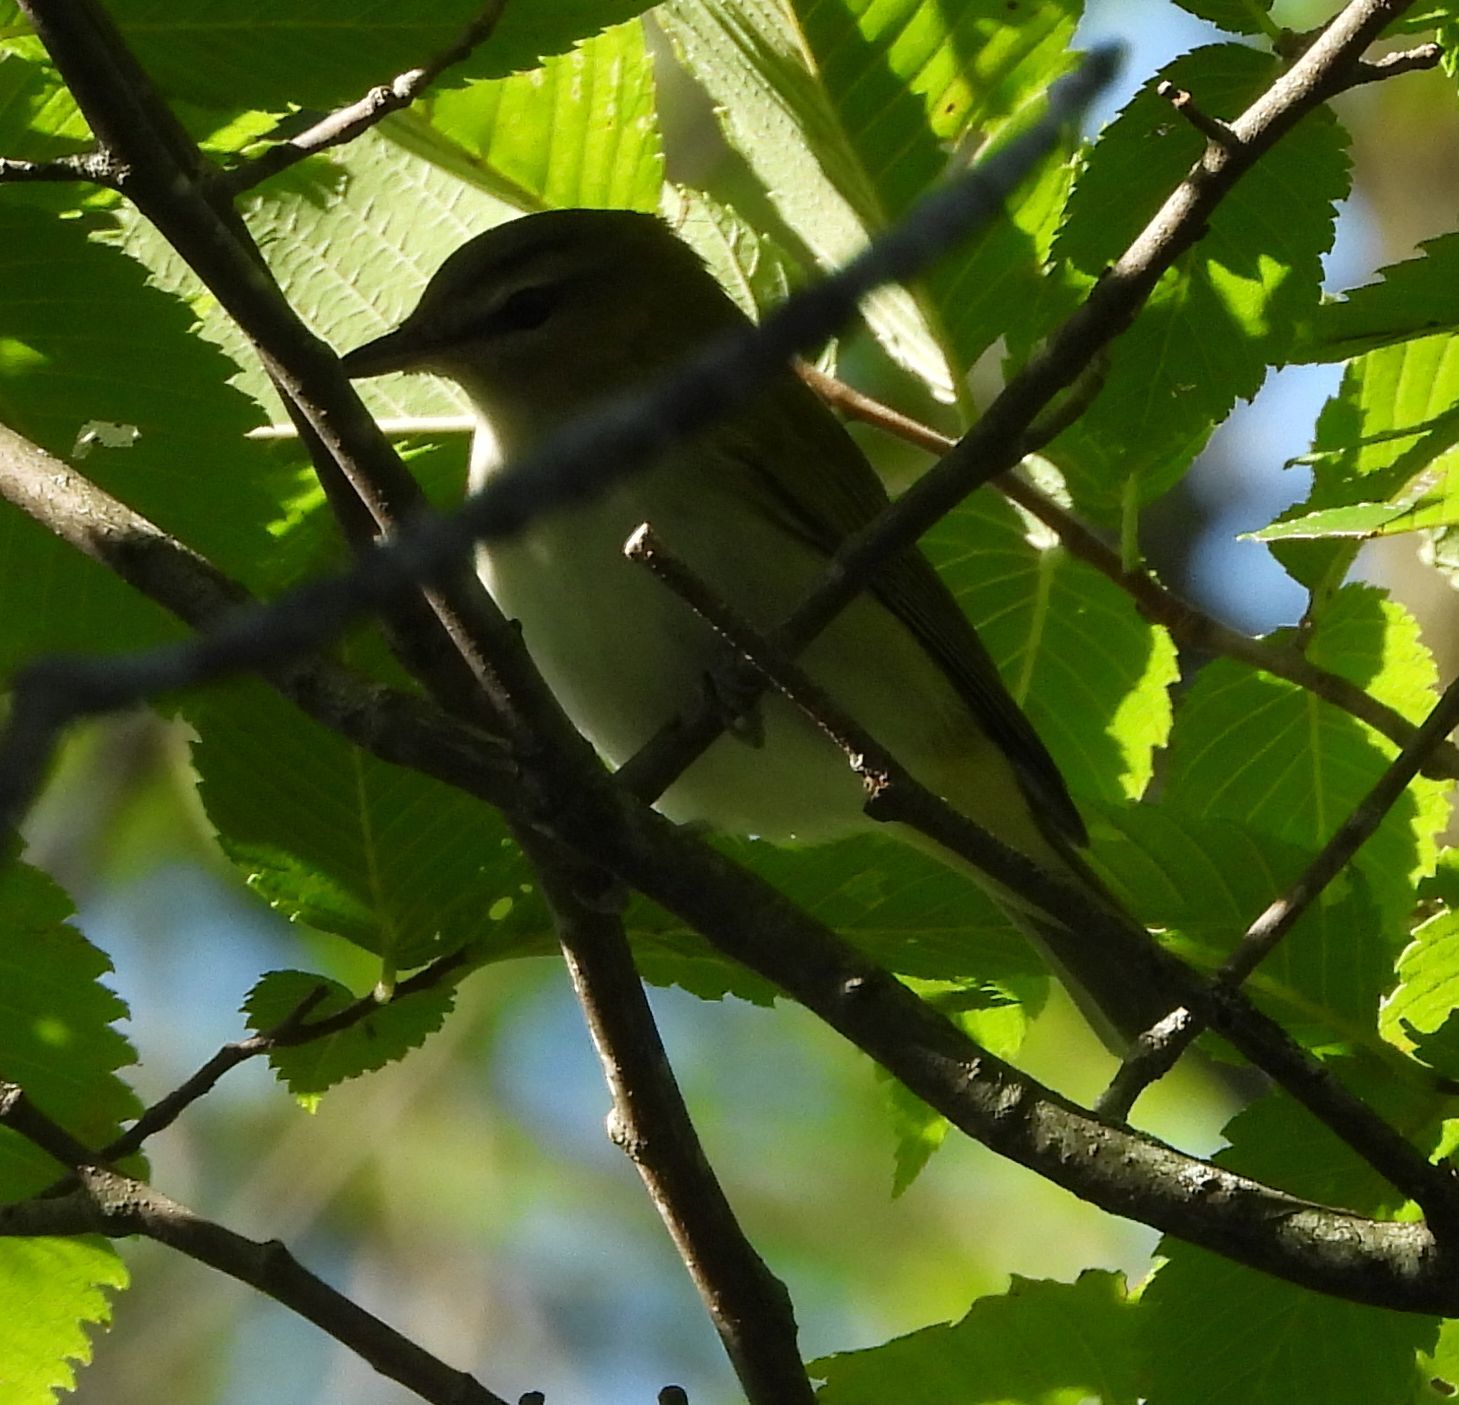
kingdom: Animalia
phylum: Chordata
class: Aves
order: Passeriformes
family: Vireonidae
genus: Vireo
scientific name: Vireo olivaceus
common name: Red-eyed vireo
